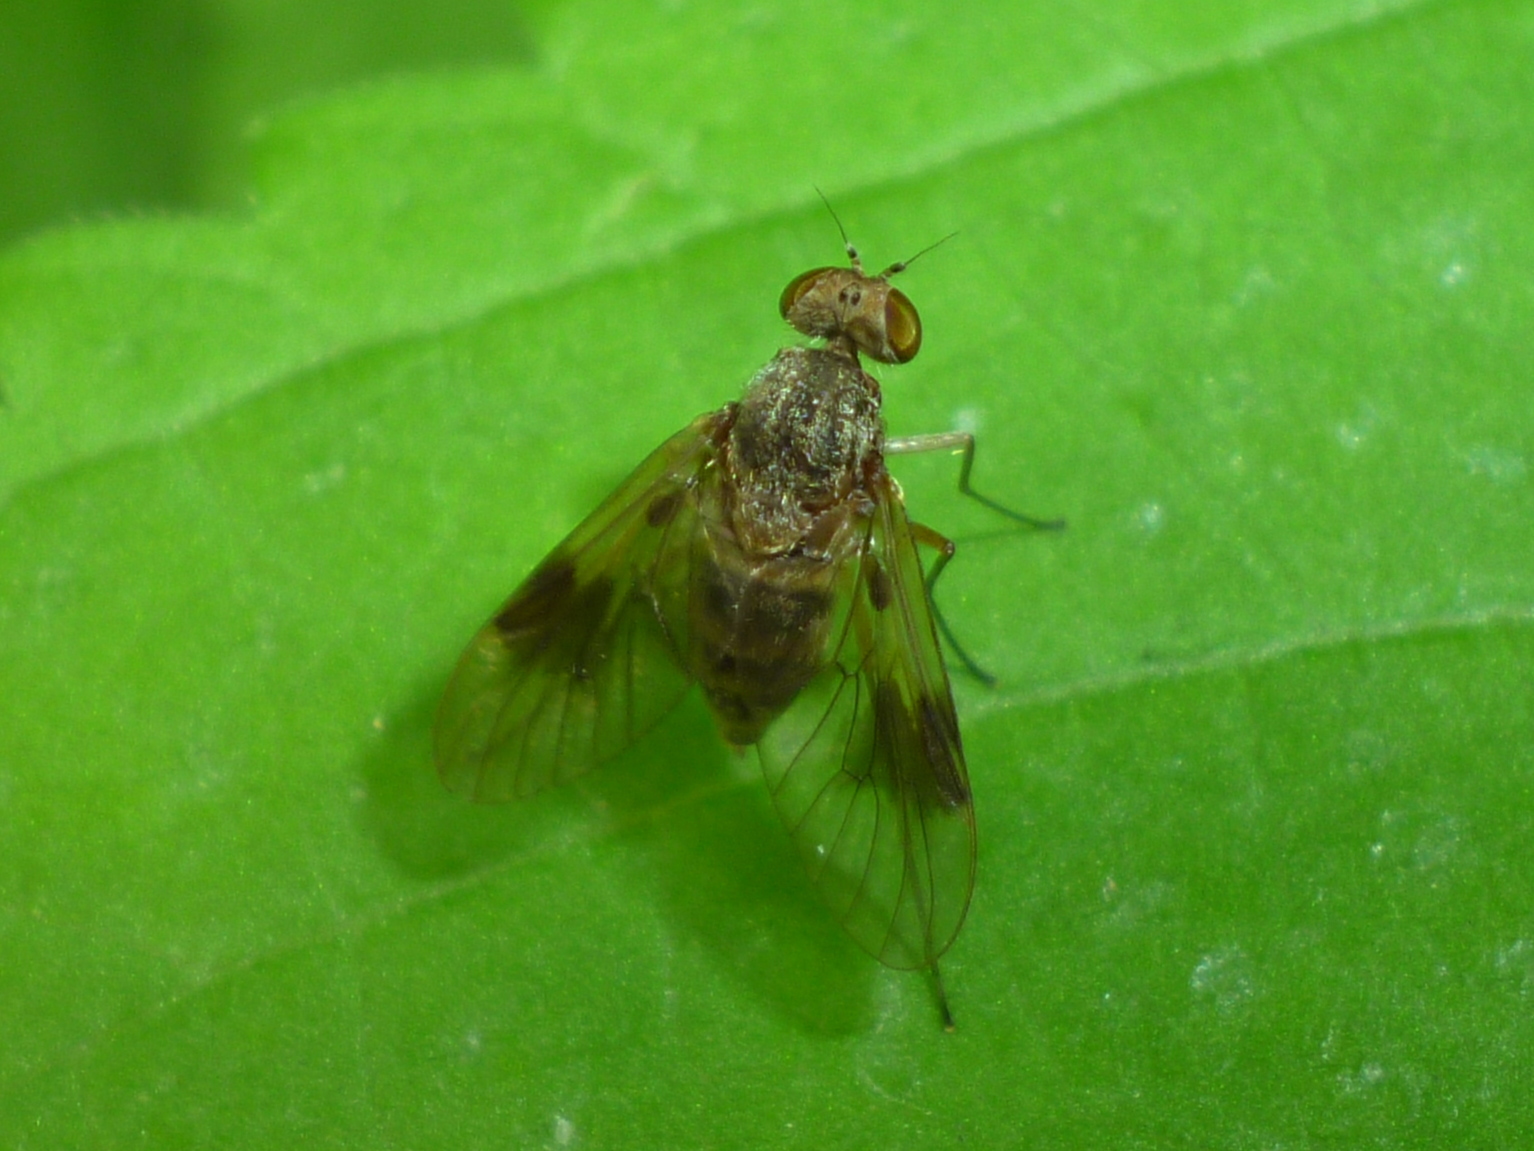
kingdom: Animalia
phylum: Arthropoda
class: Insecta
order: Diptera
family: Rhagionidae
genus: Chrysopilus
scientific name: Chrysopilus quadratus
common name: Quadrate snipe fly
